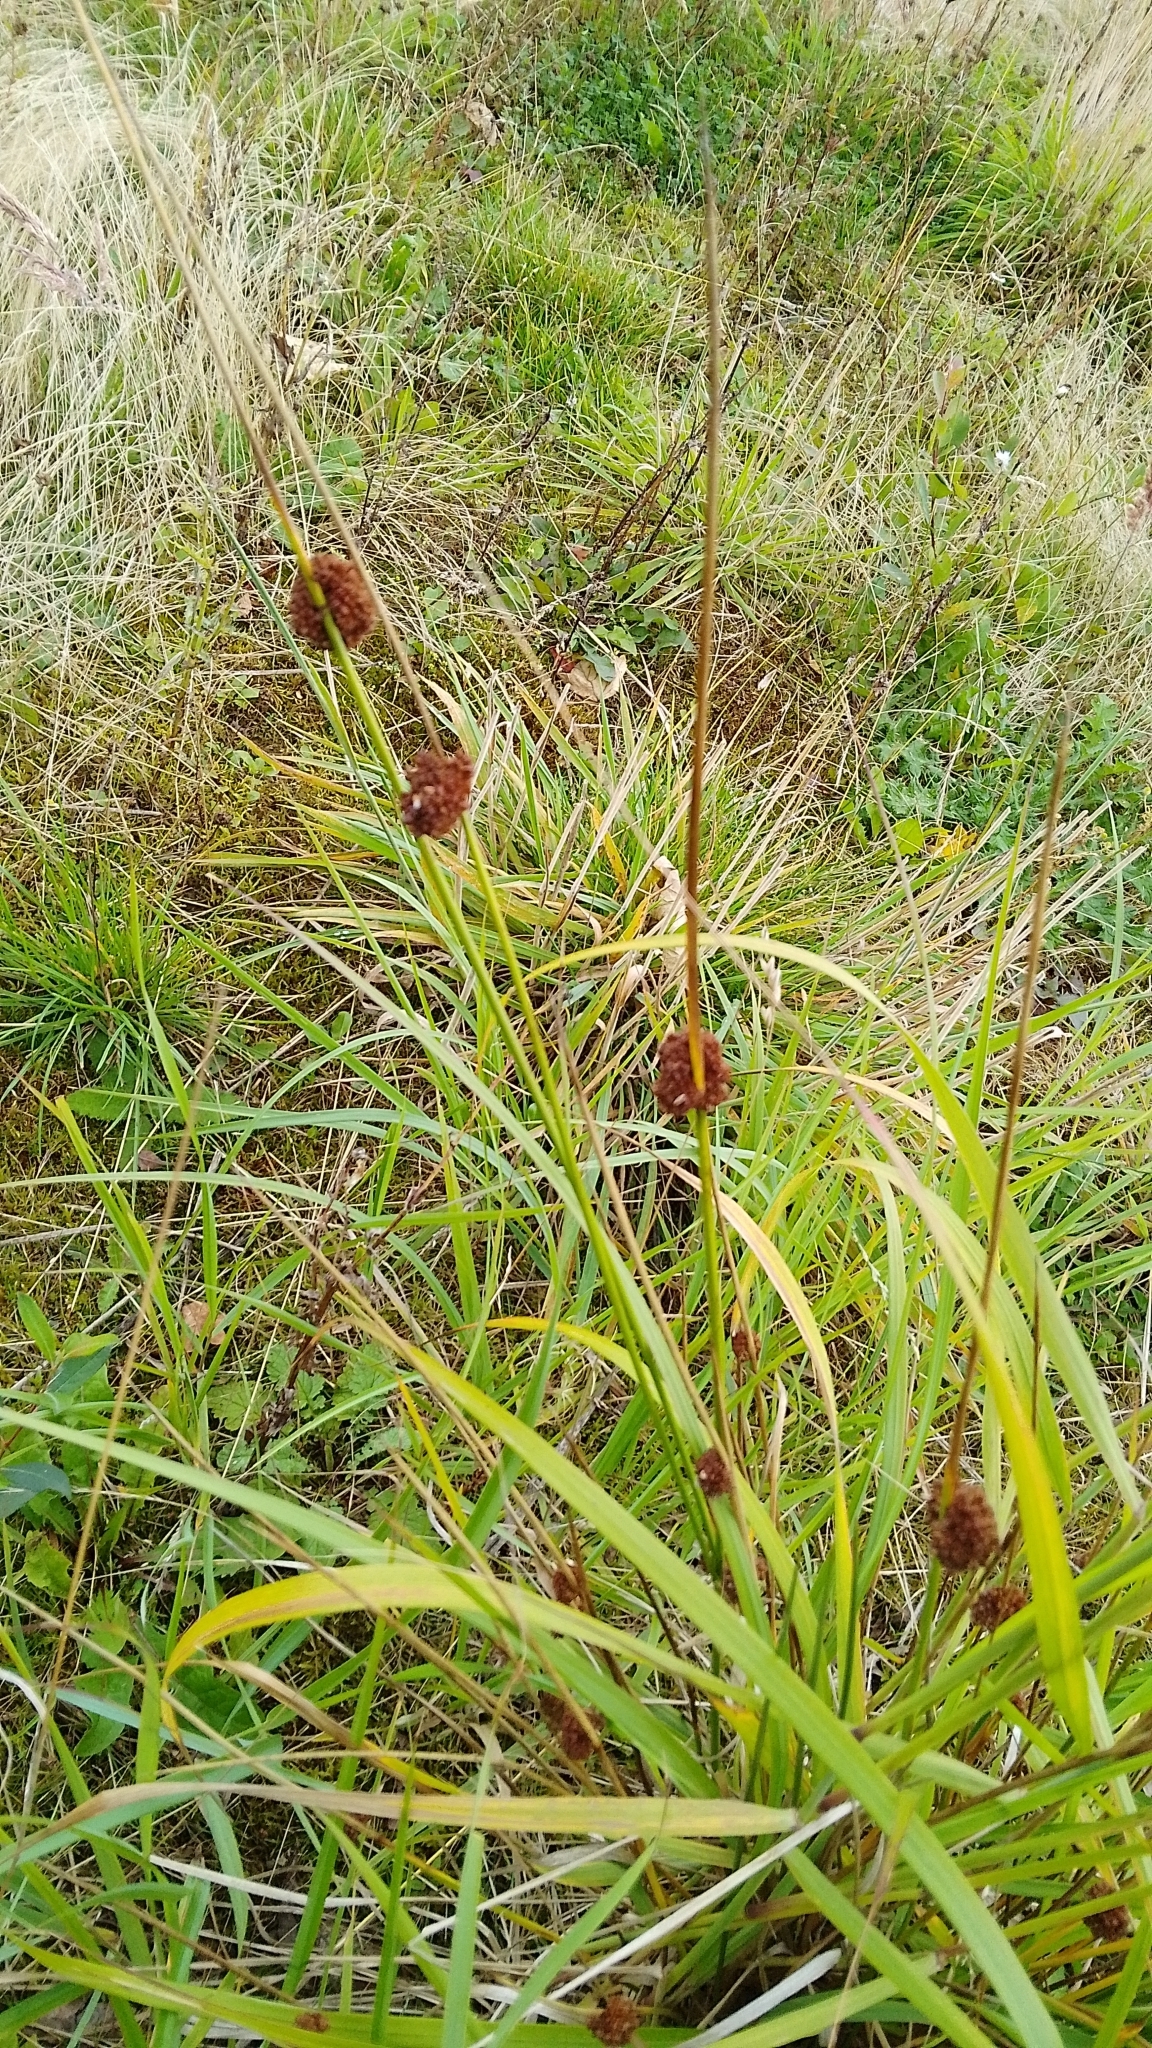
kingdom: Plantae
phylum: Tracheophyta
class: Liliopsida
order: Poales
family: Juncaceae
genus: Juncus
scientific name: Juncus conglomeratus
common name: Compact rush
